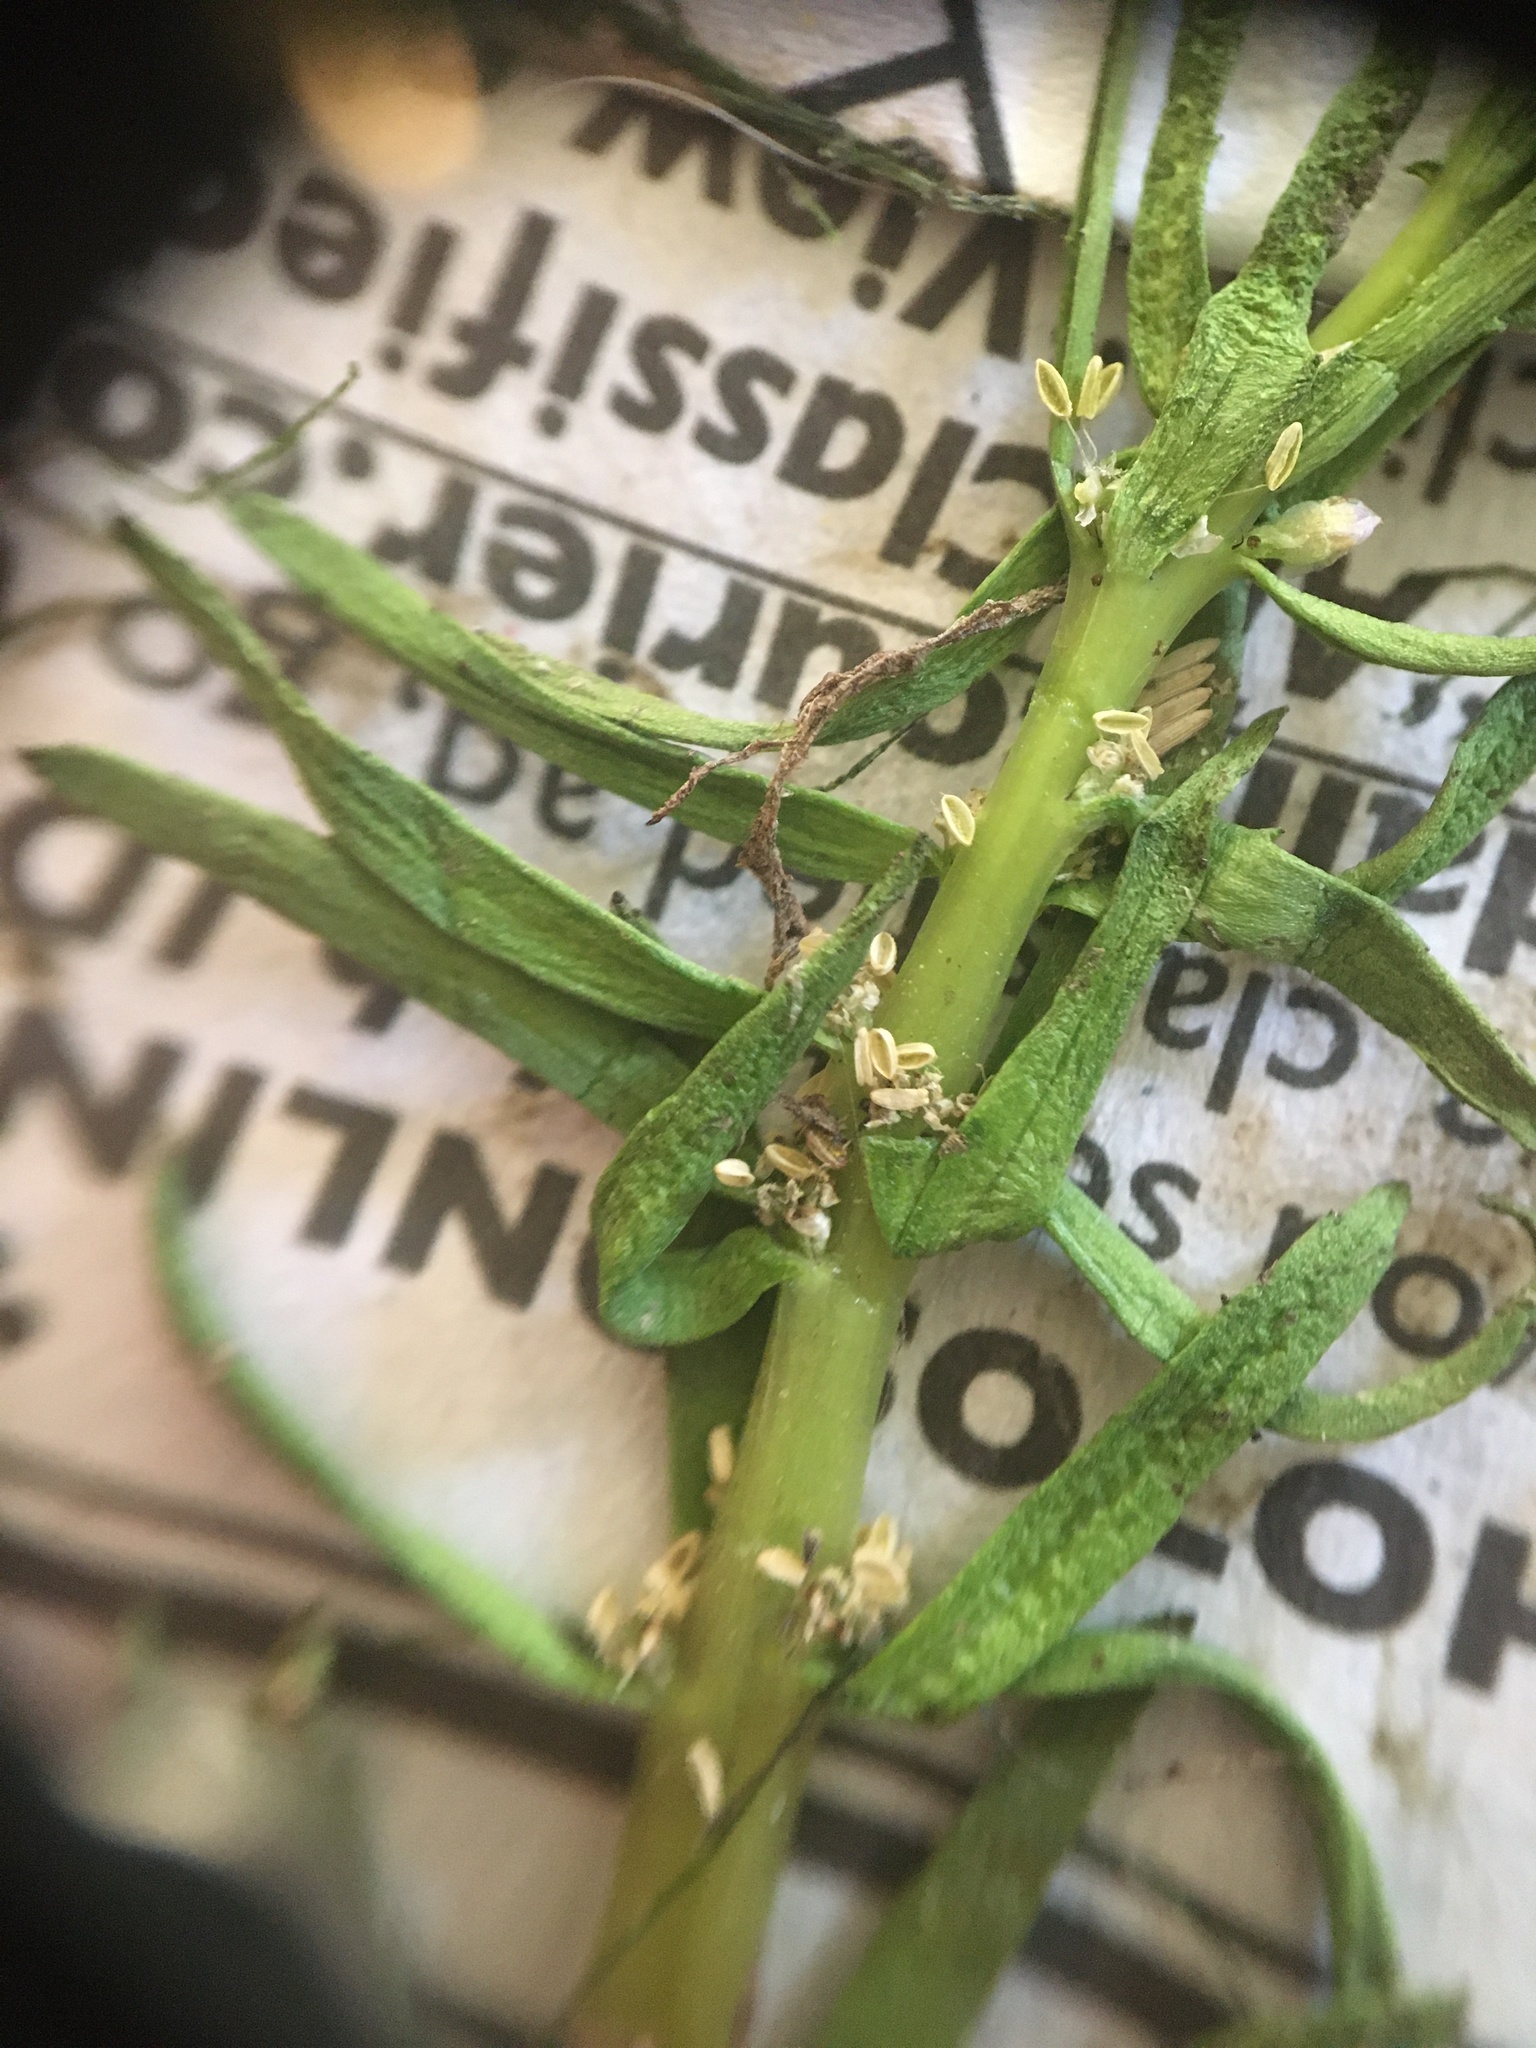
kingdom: Plantae
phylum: Tracheophyta
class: Magnoliopsida
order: Lamiales
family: Plantaginaceae
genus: Hippuris
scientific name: Hippuris vulgaris
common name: Mare's-tail
